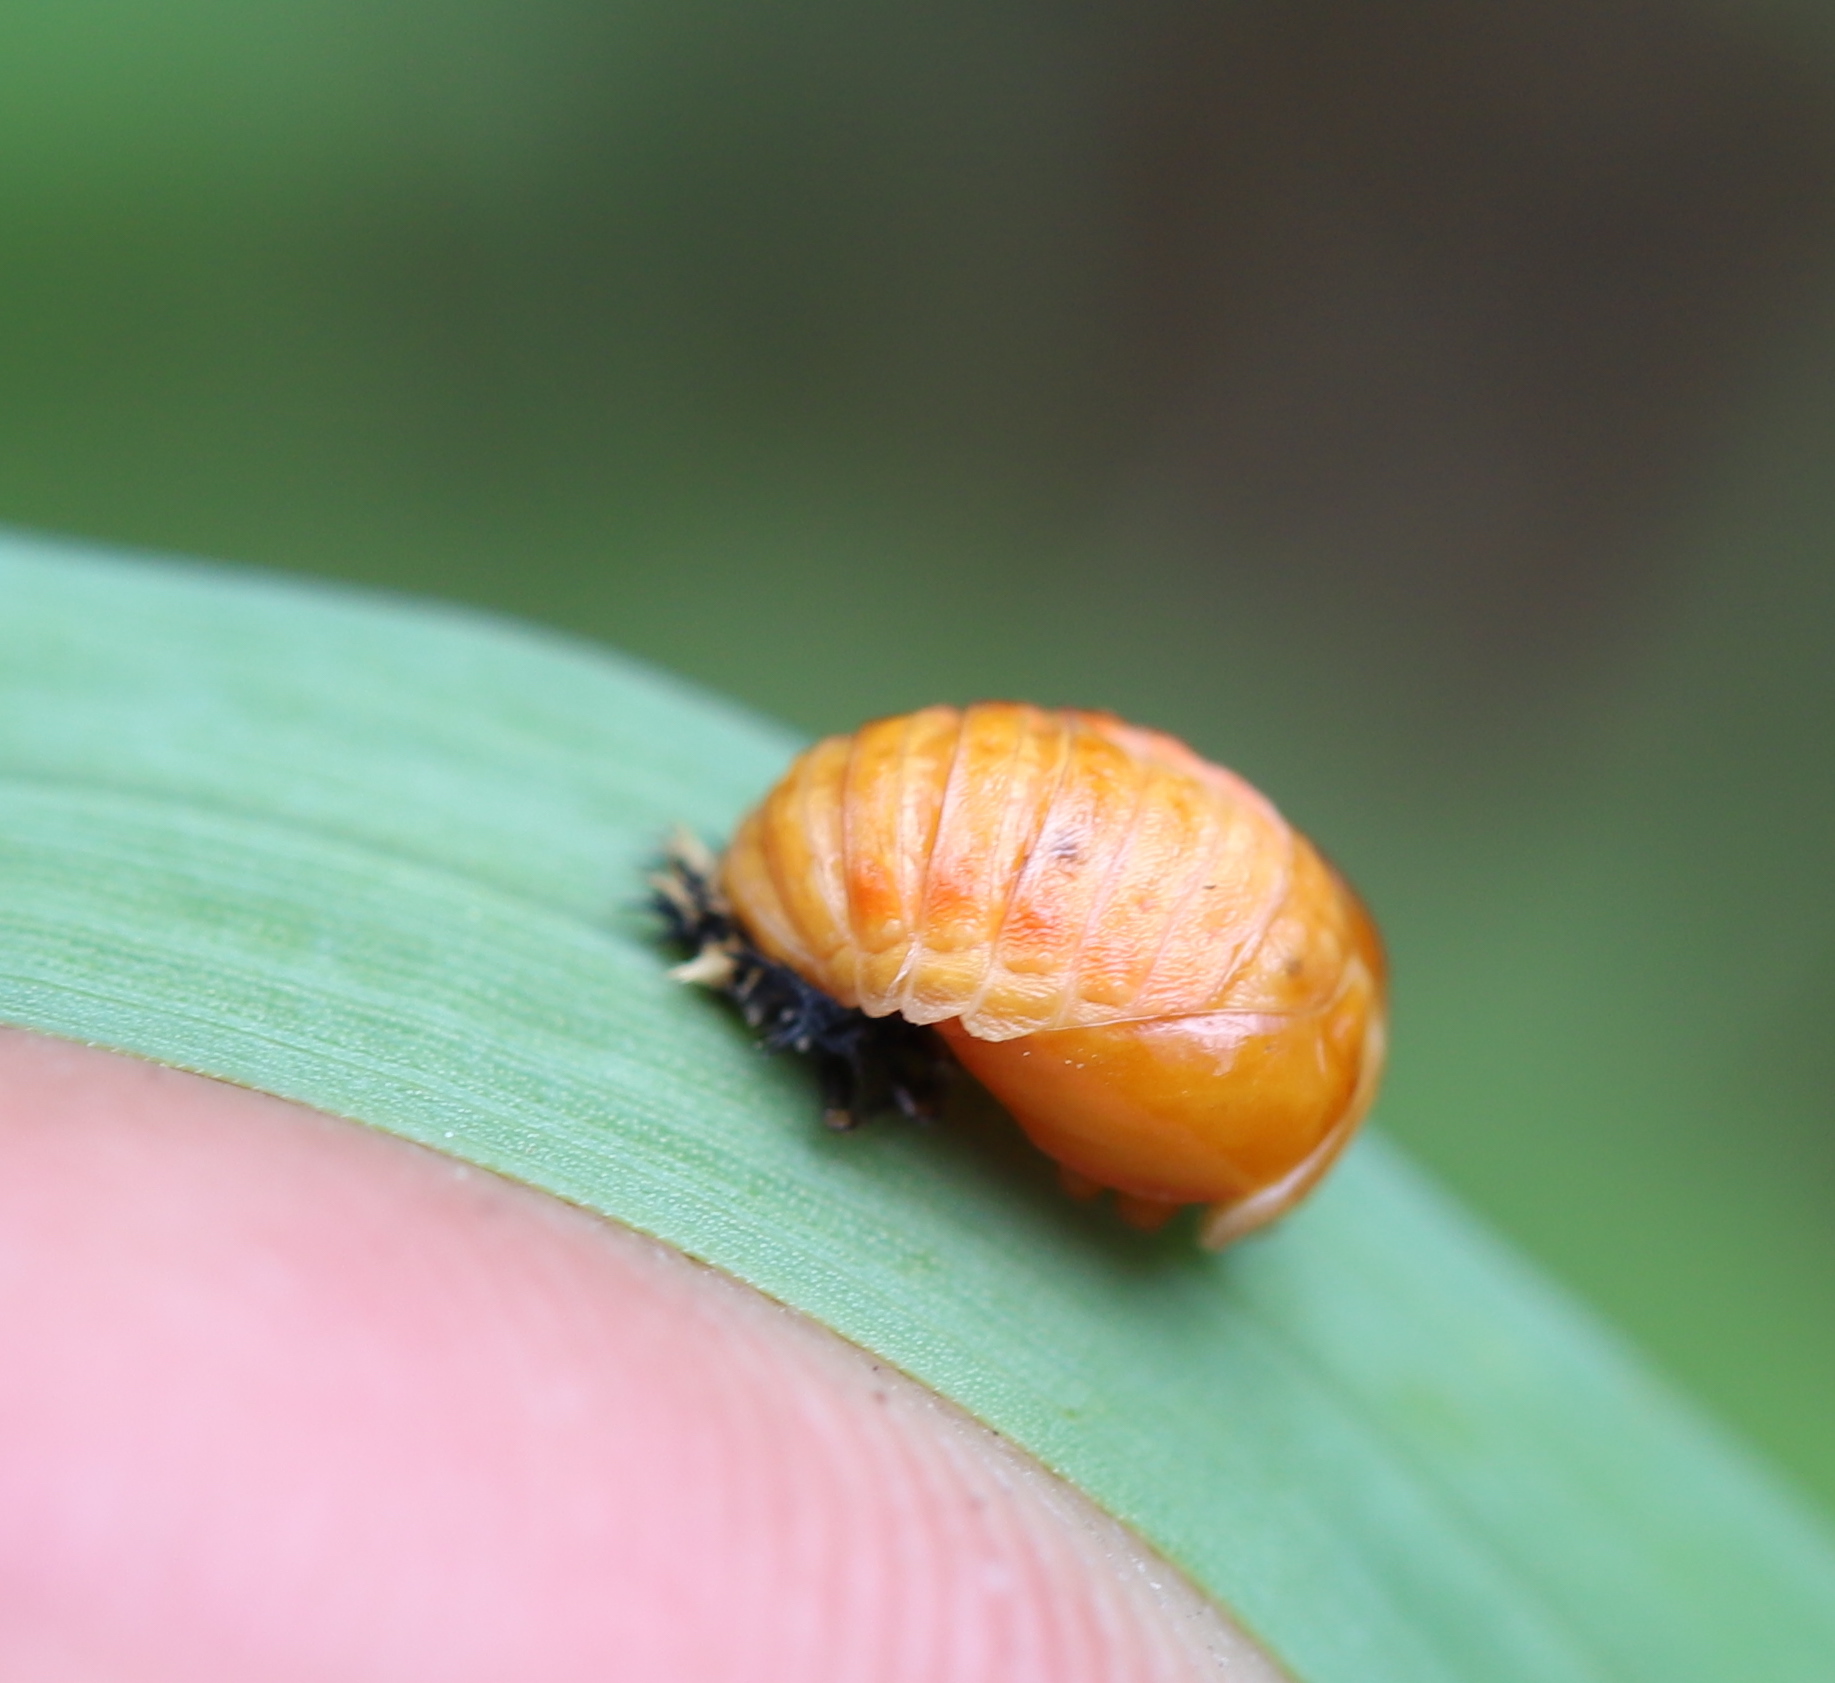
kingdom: Animalia
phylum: Arthropoda
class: Insecta
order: Coleoptera
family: Coccinellidae
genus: Harmonia
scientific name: Harmonia axyridis
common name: Harlequin ladybird
